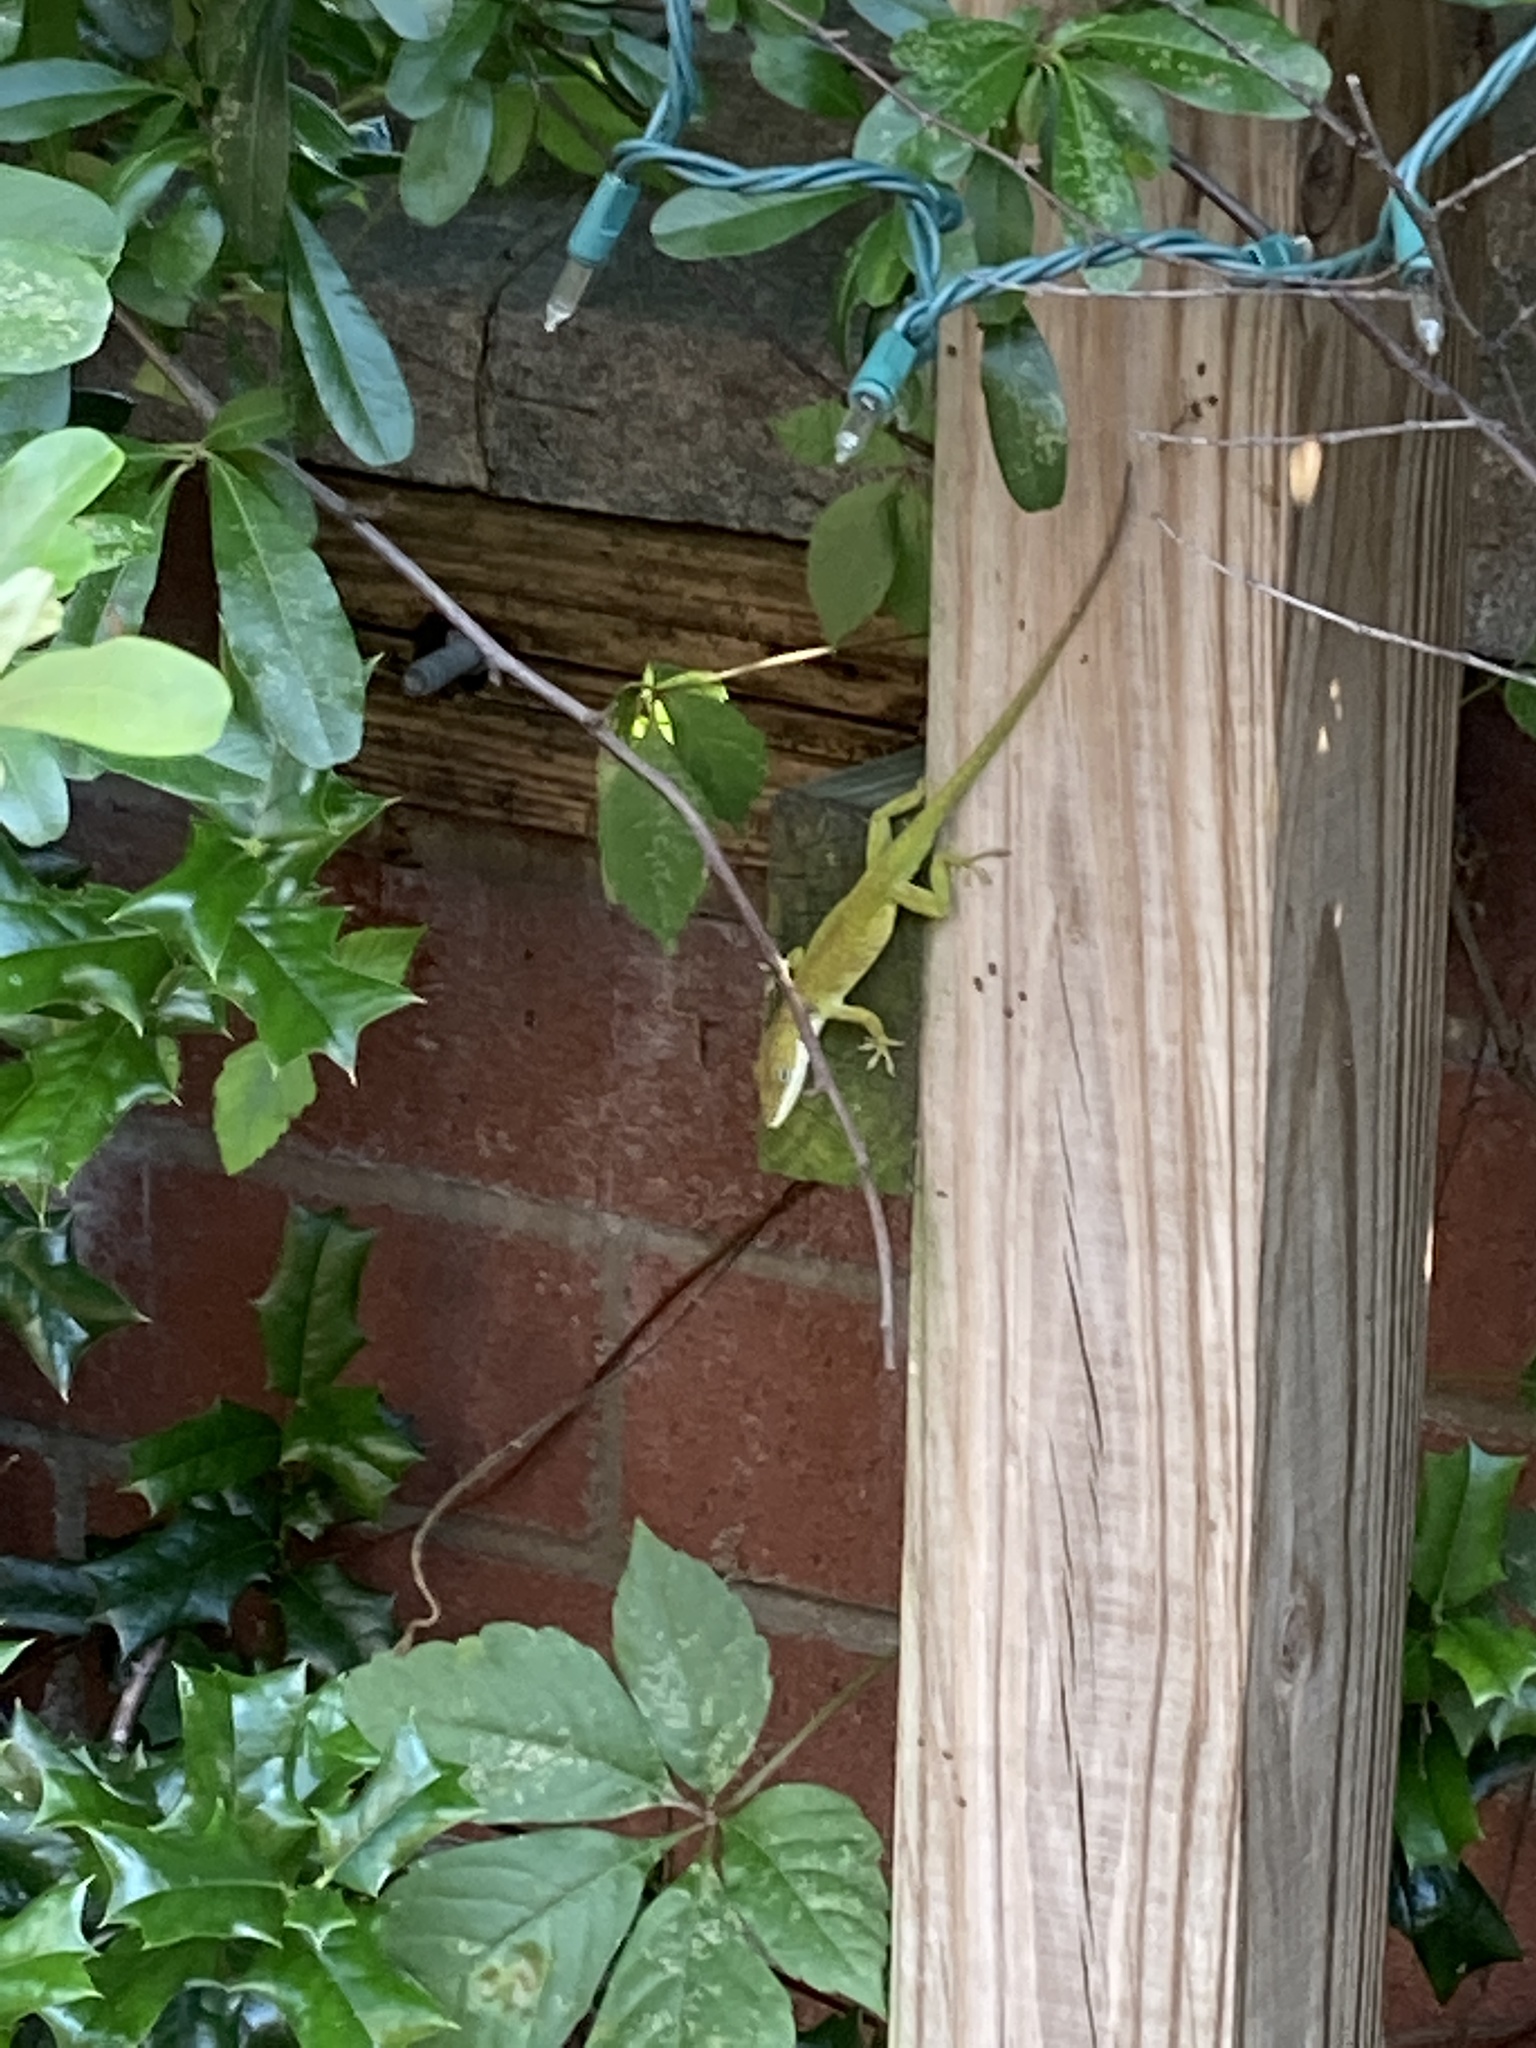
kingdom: Animalia
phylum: Chordata
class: Squamata
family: Dactyloidae
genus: Anolis
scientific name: Anolis carolinensis
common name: Green anole
